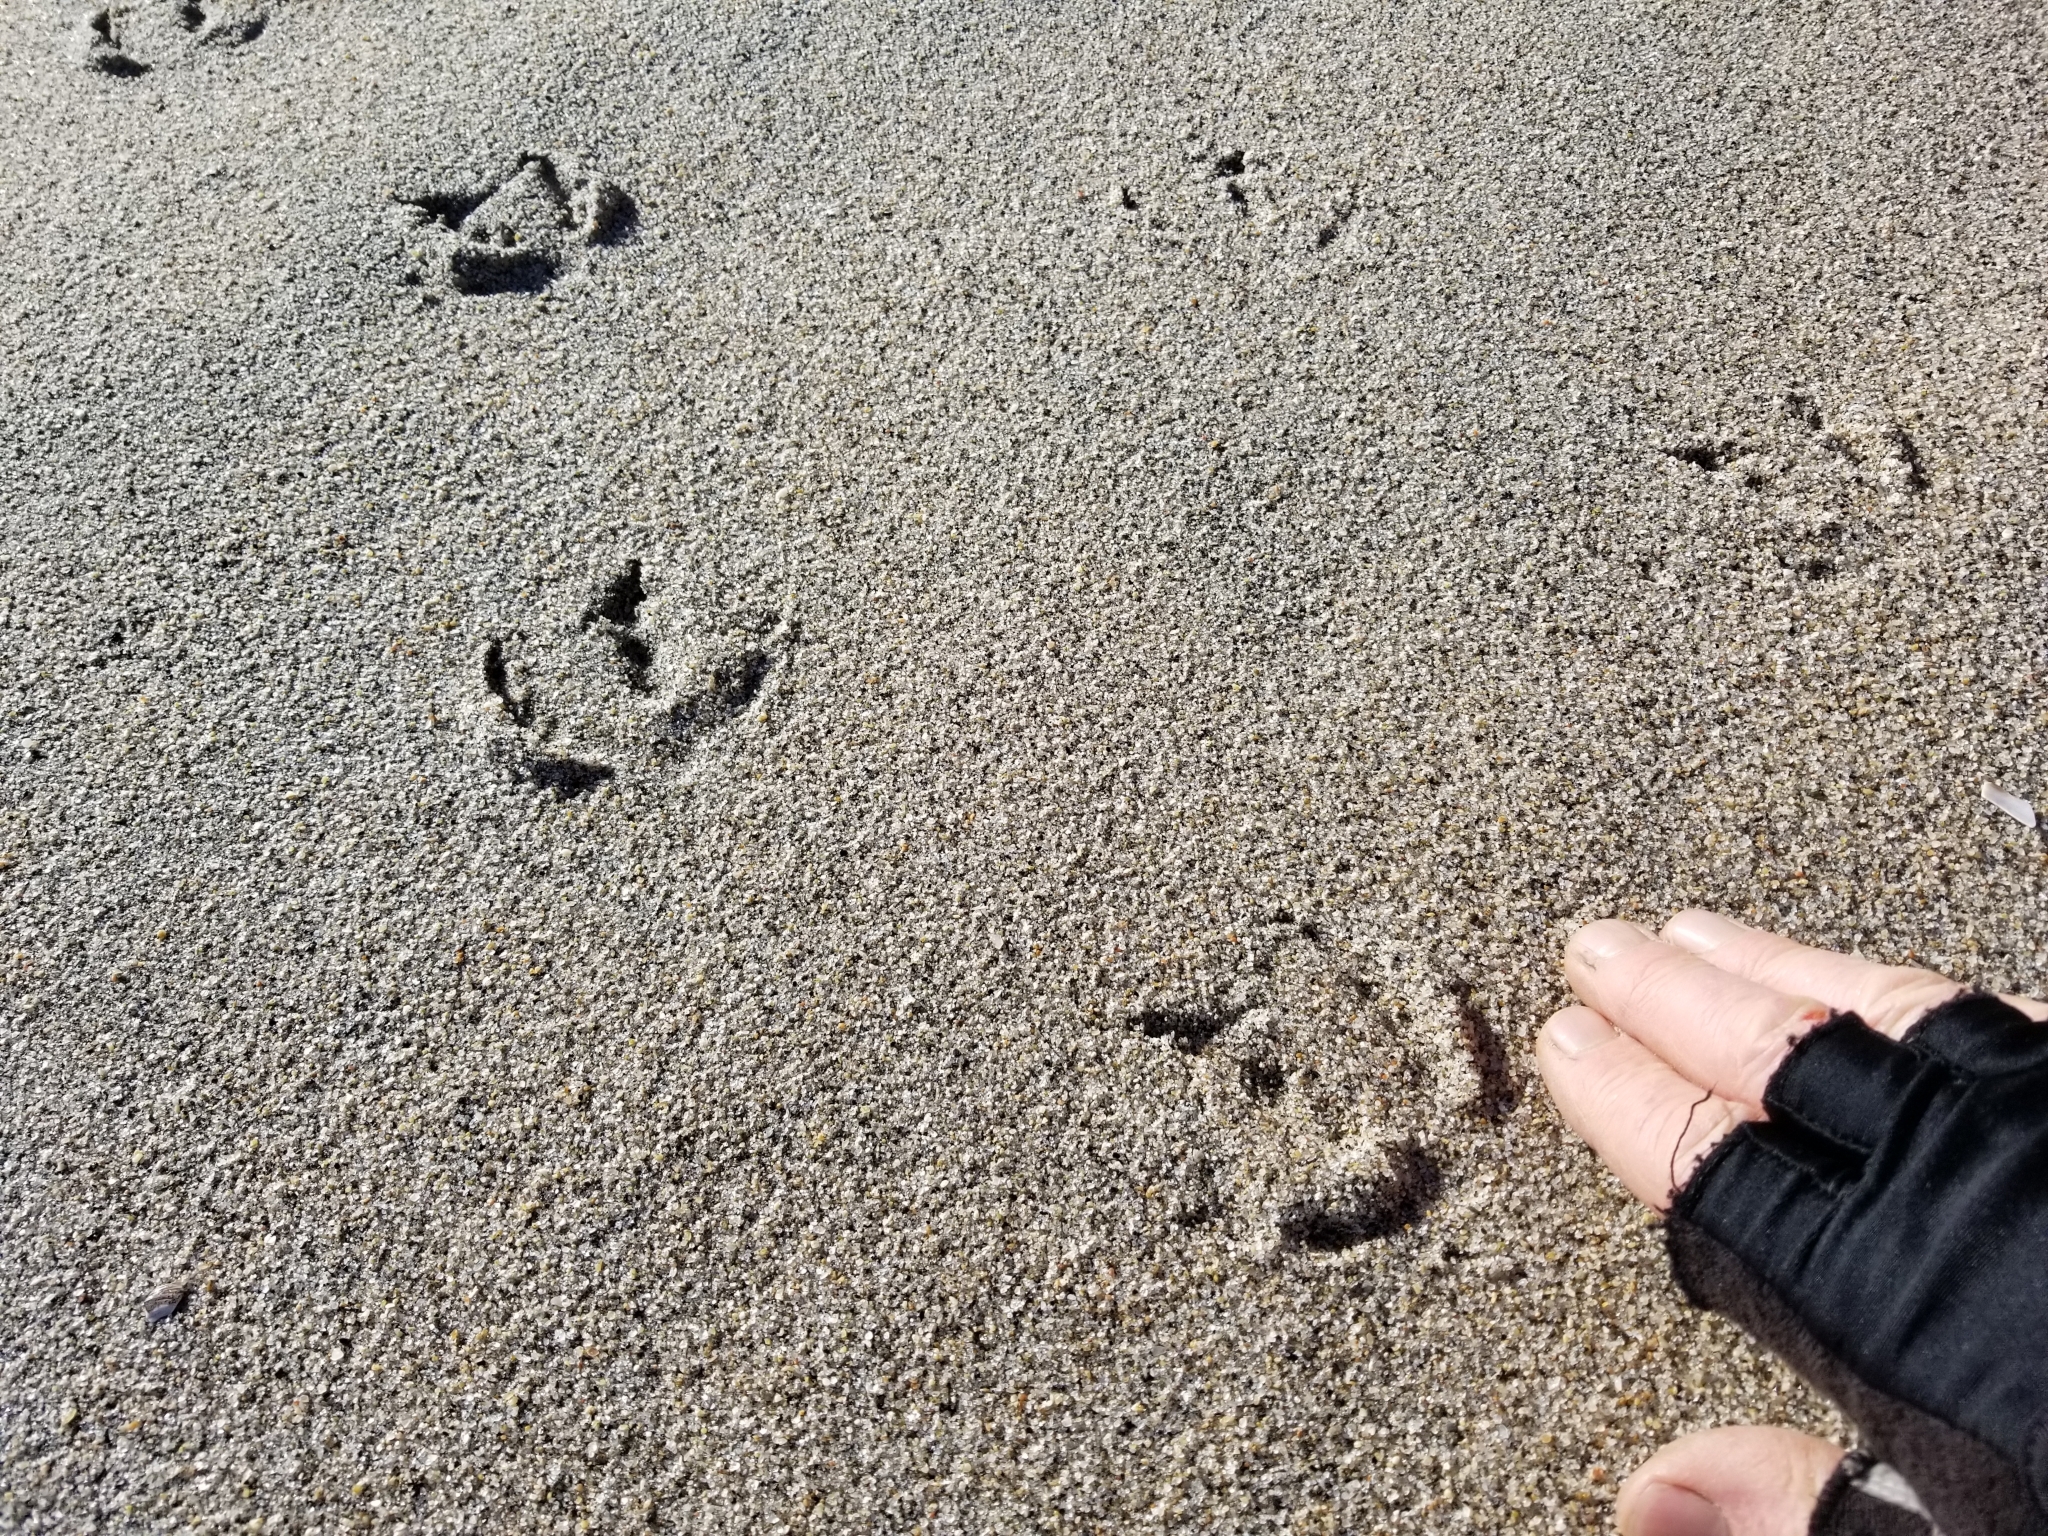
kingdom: Animalia
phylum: Chordata
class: Aves
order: Sphenisciformes
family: Spheniscidae
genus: Eudyptula
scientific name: Eudyptula minor
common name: Little penguin
